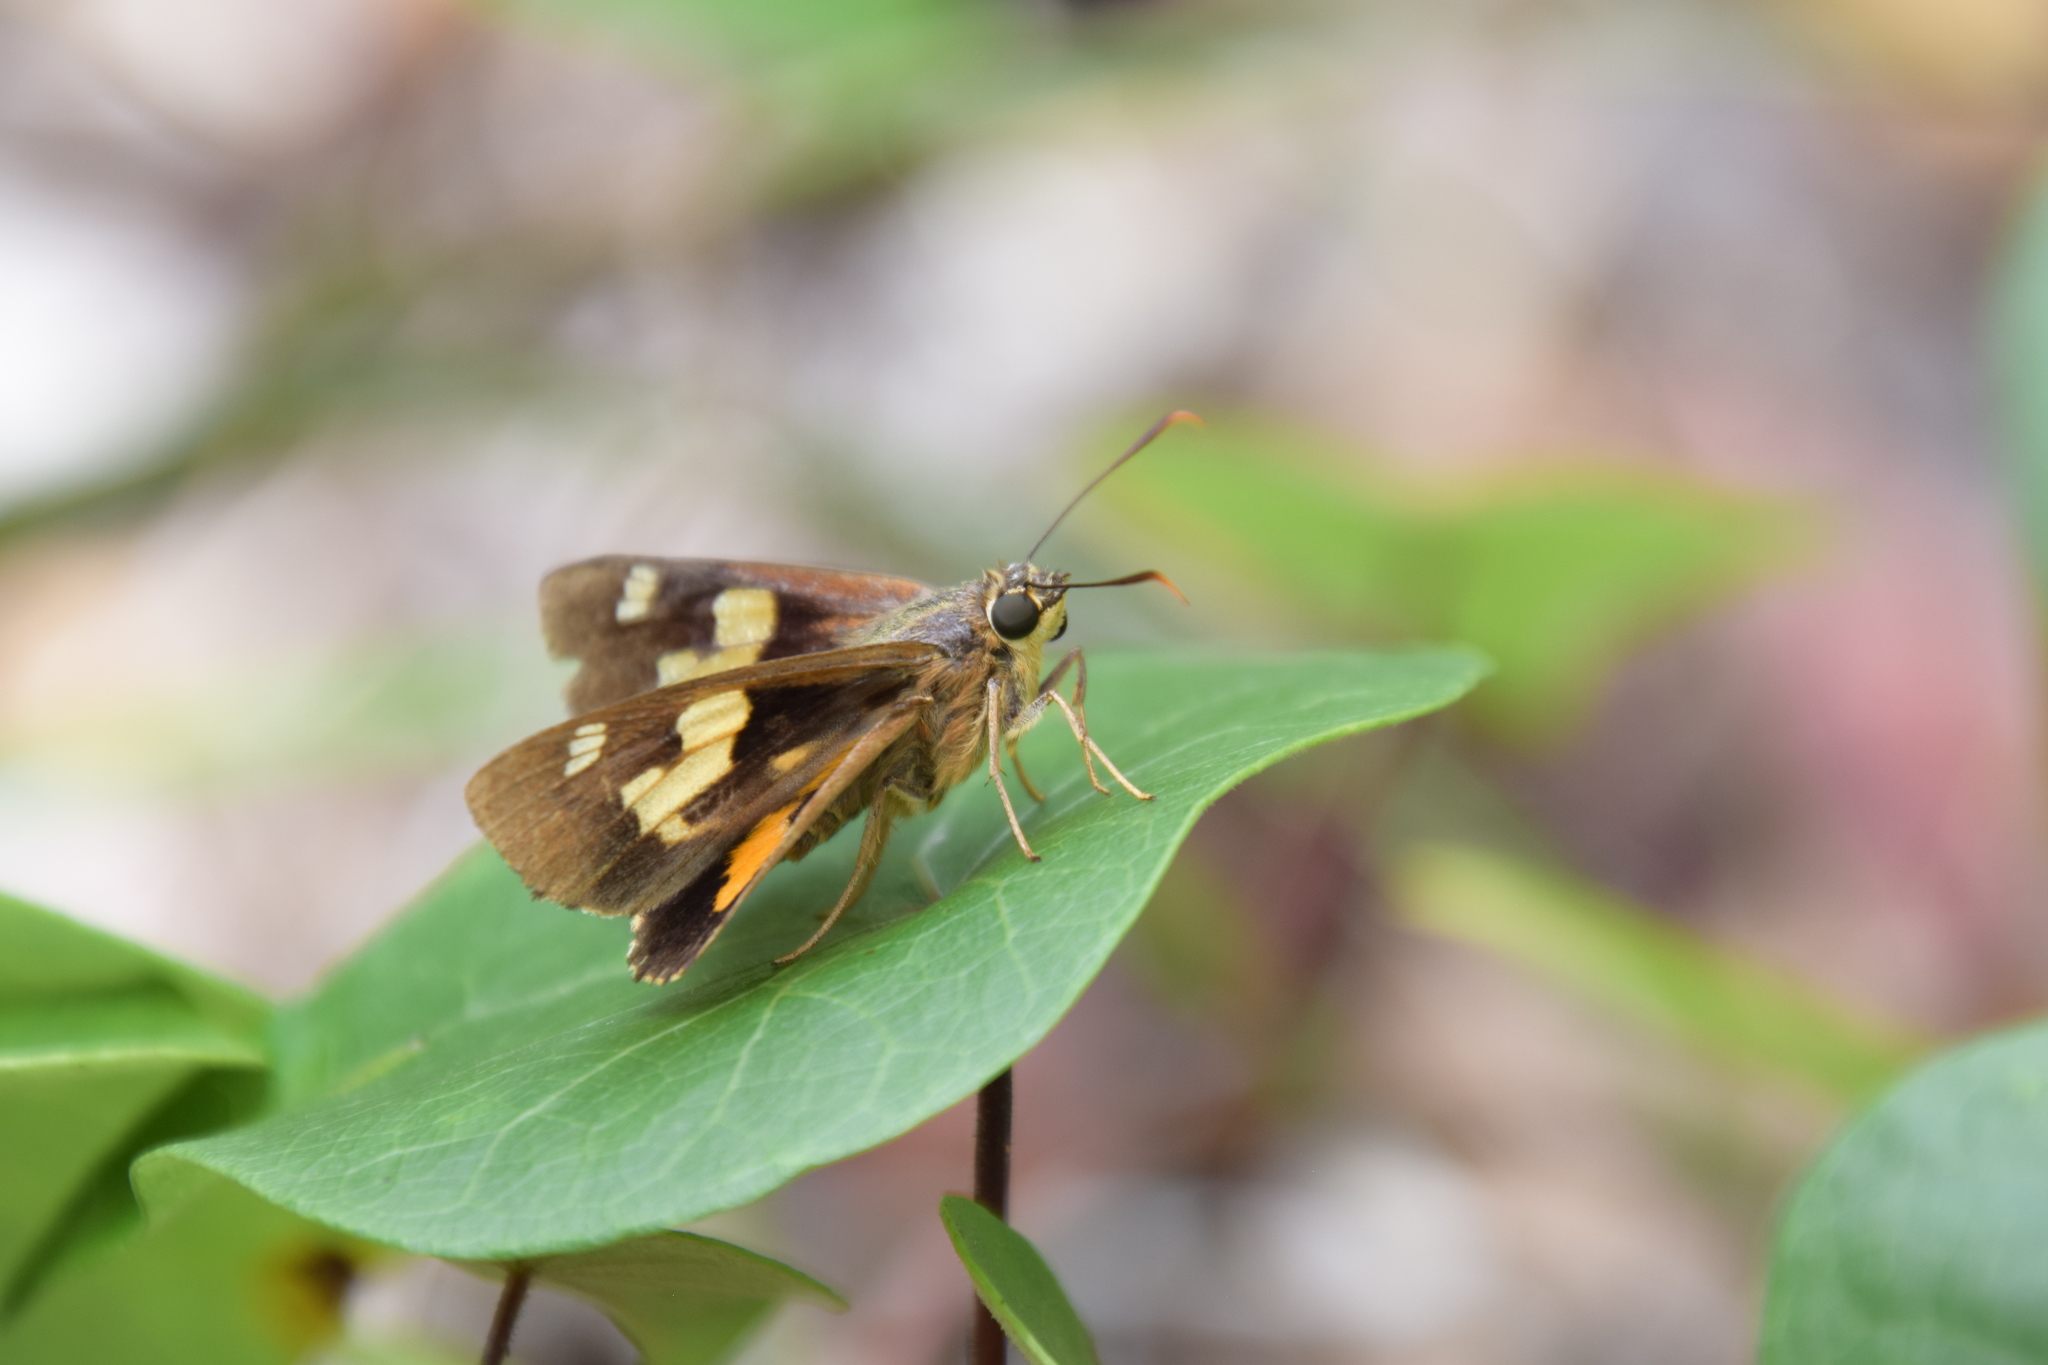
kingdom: Animalia
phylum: Arthropoda
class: Insecta
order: Lepidoptera
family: Hesperiidae
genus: Trapezites
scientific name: Trapezites symmomus
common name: Splendid ochre
